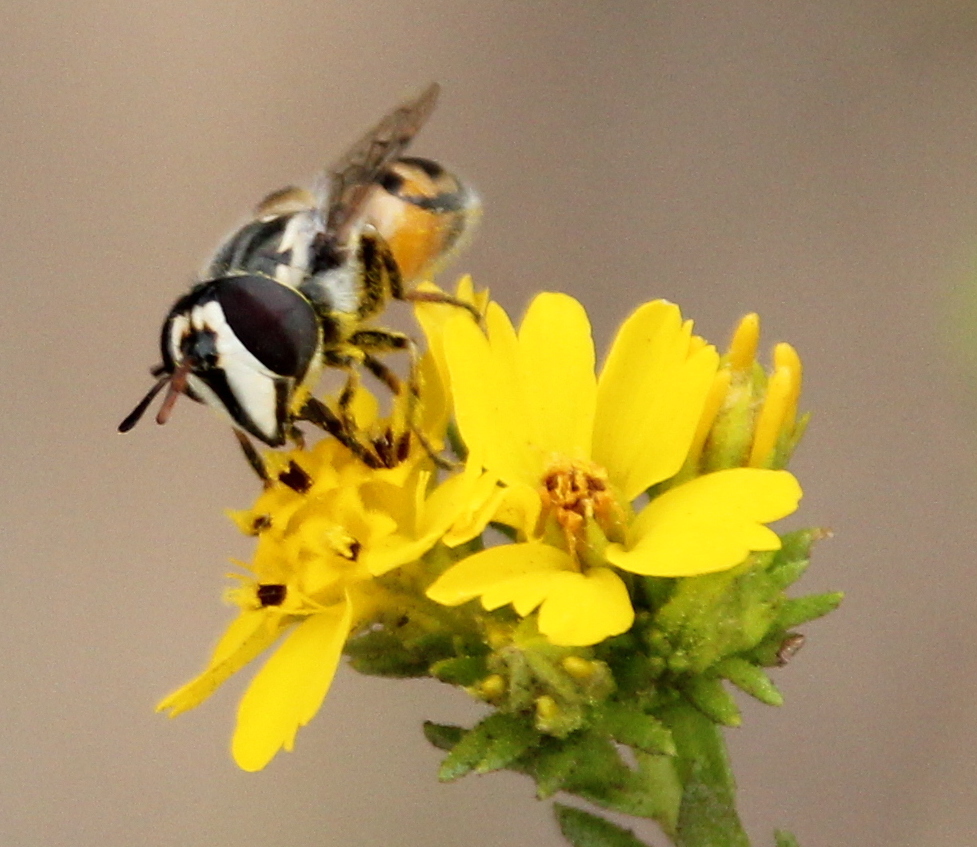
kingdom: Animalia
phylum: Arthropoda
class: Insecta
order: Diptera
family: Syrphidae
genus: Copestylum
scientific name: Copestylum marginatum
